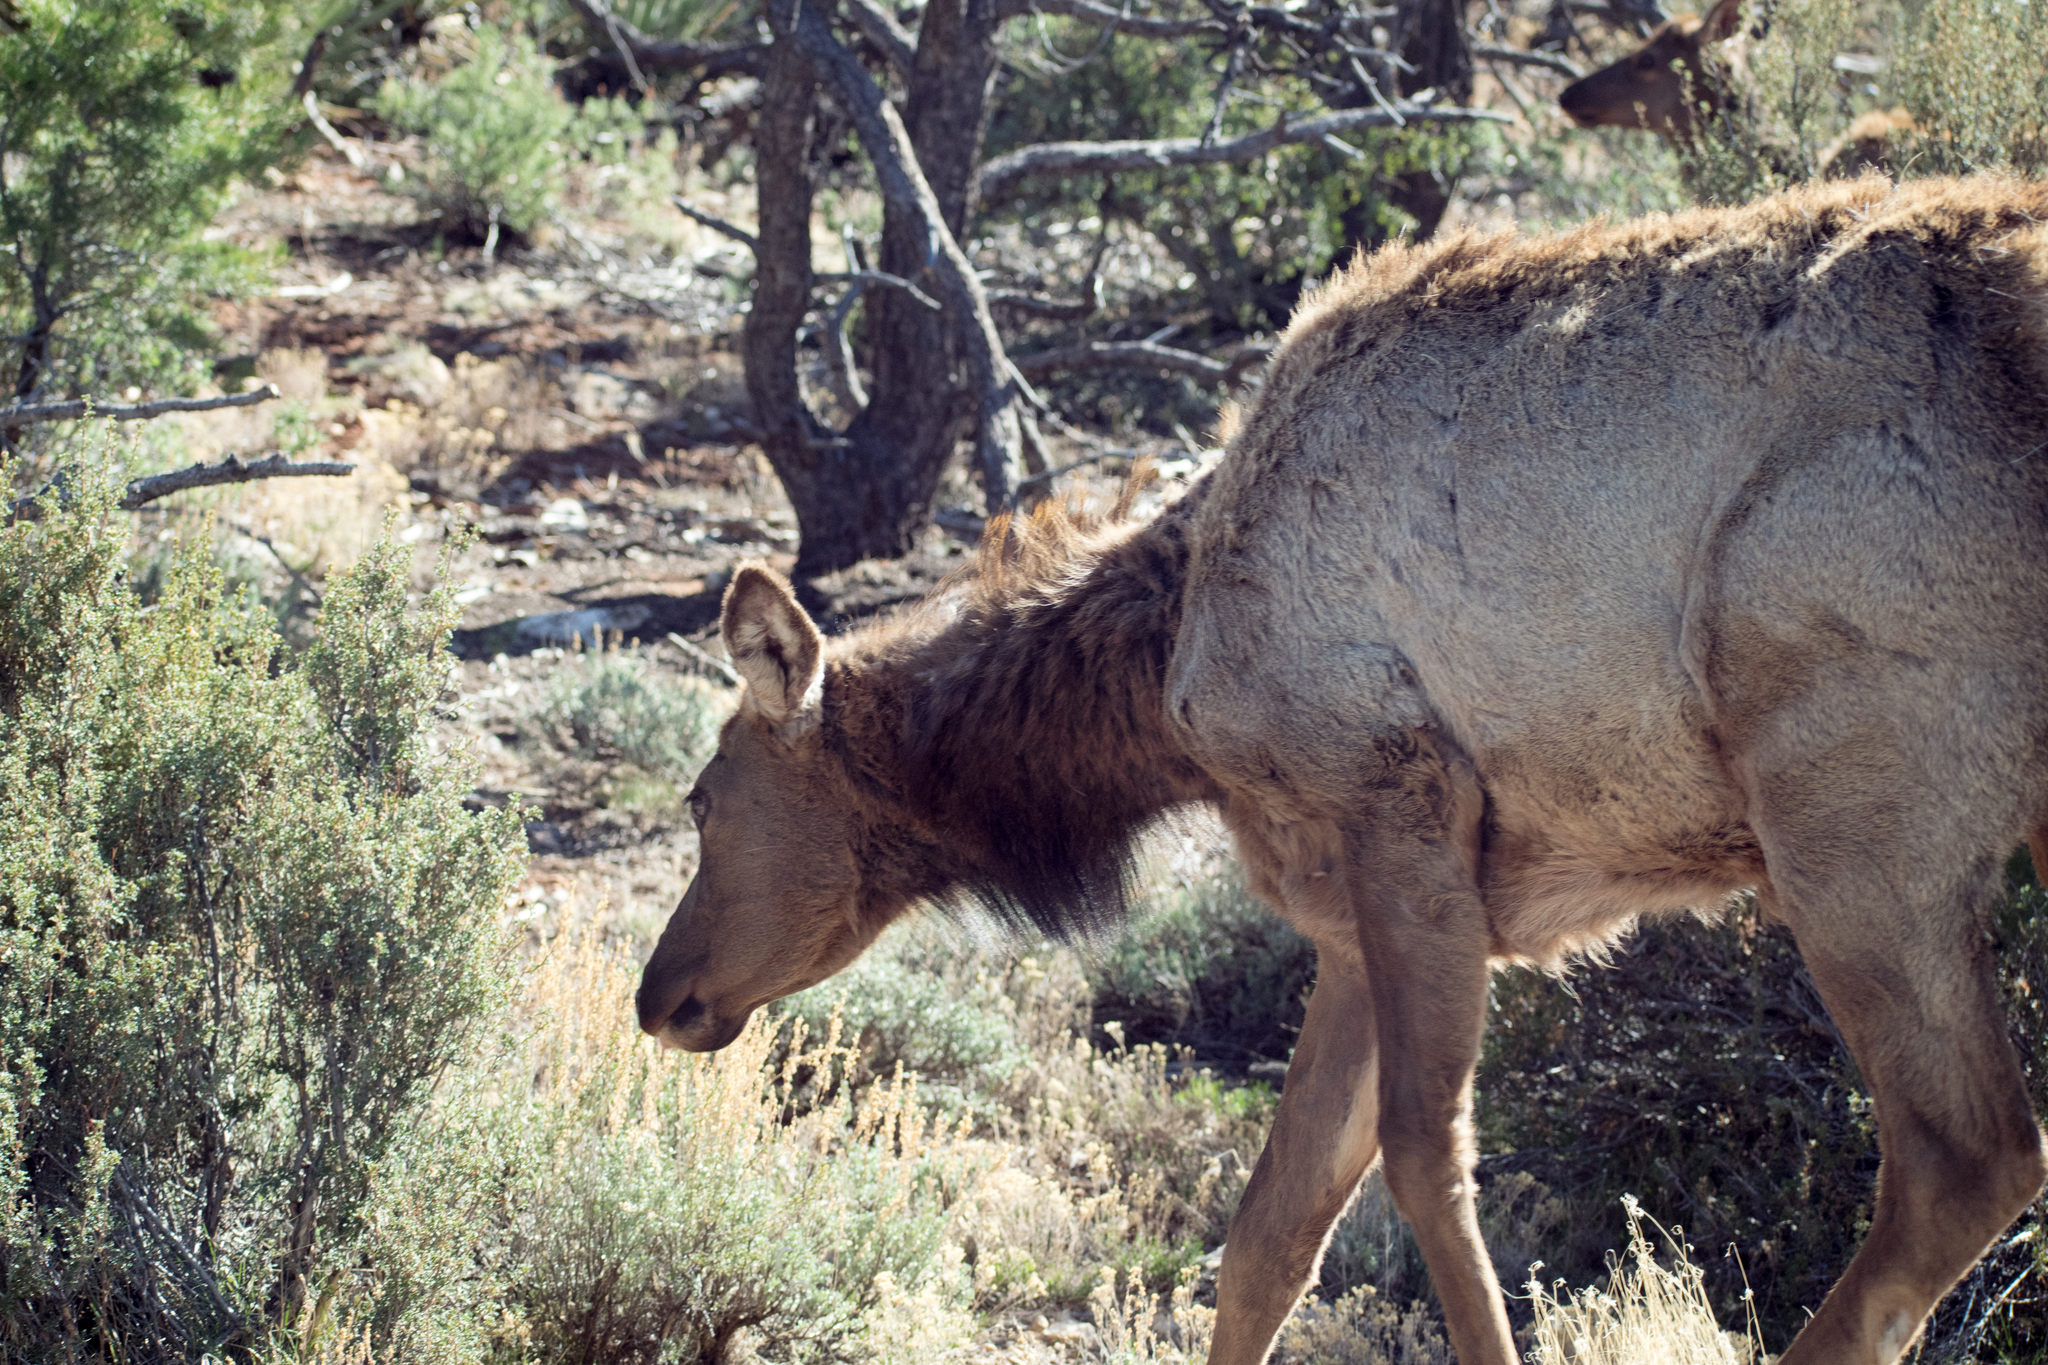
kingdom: Animalia
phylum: Chordata
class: Mammalia
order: Artiodactyla
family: Cervidae
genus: Cervus
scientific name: Cervus elaphus
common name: Red deer
